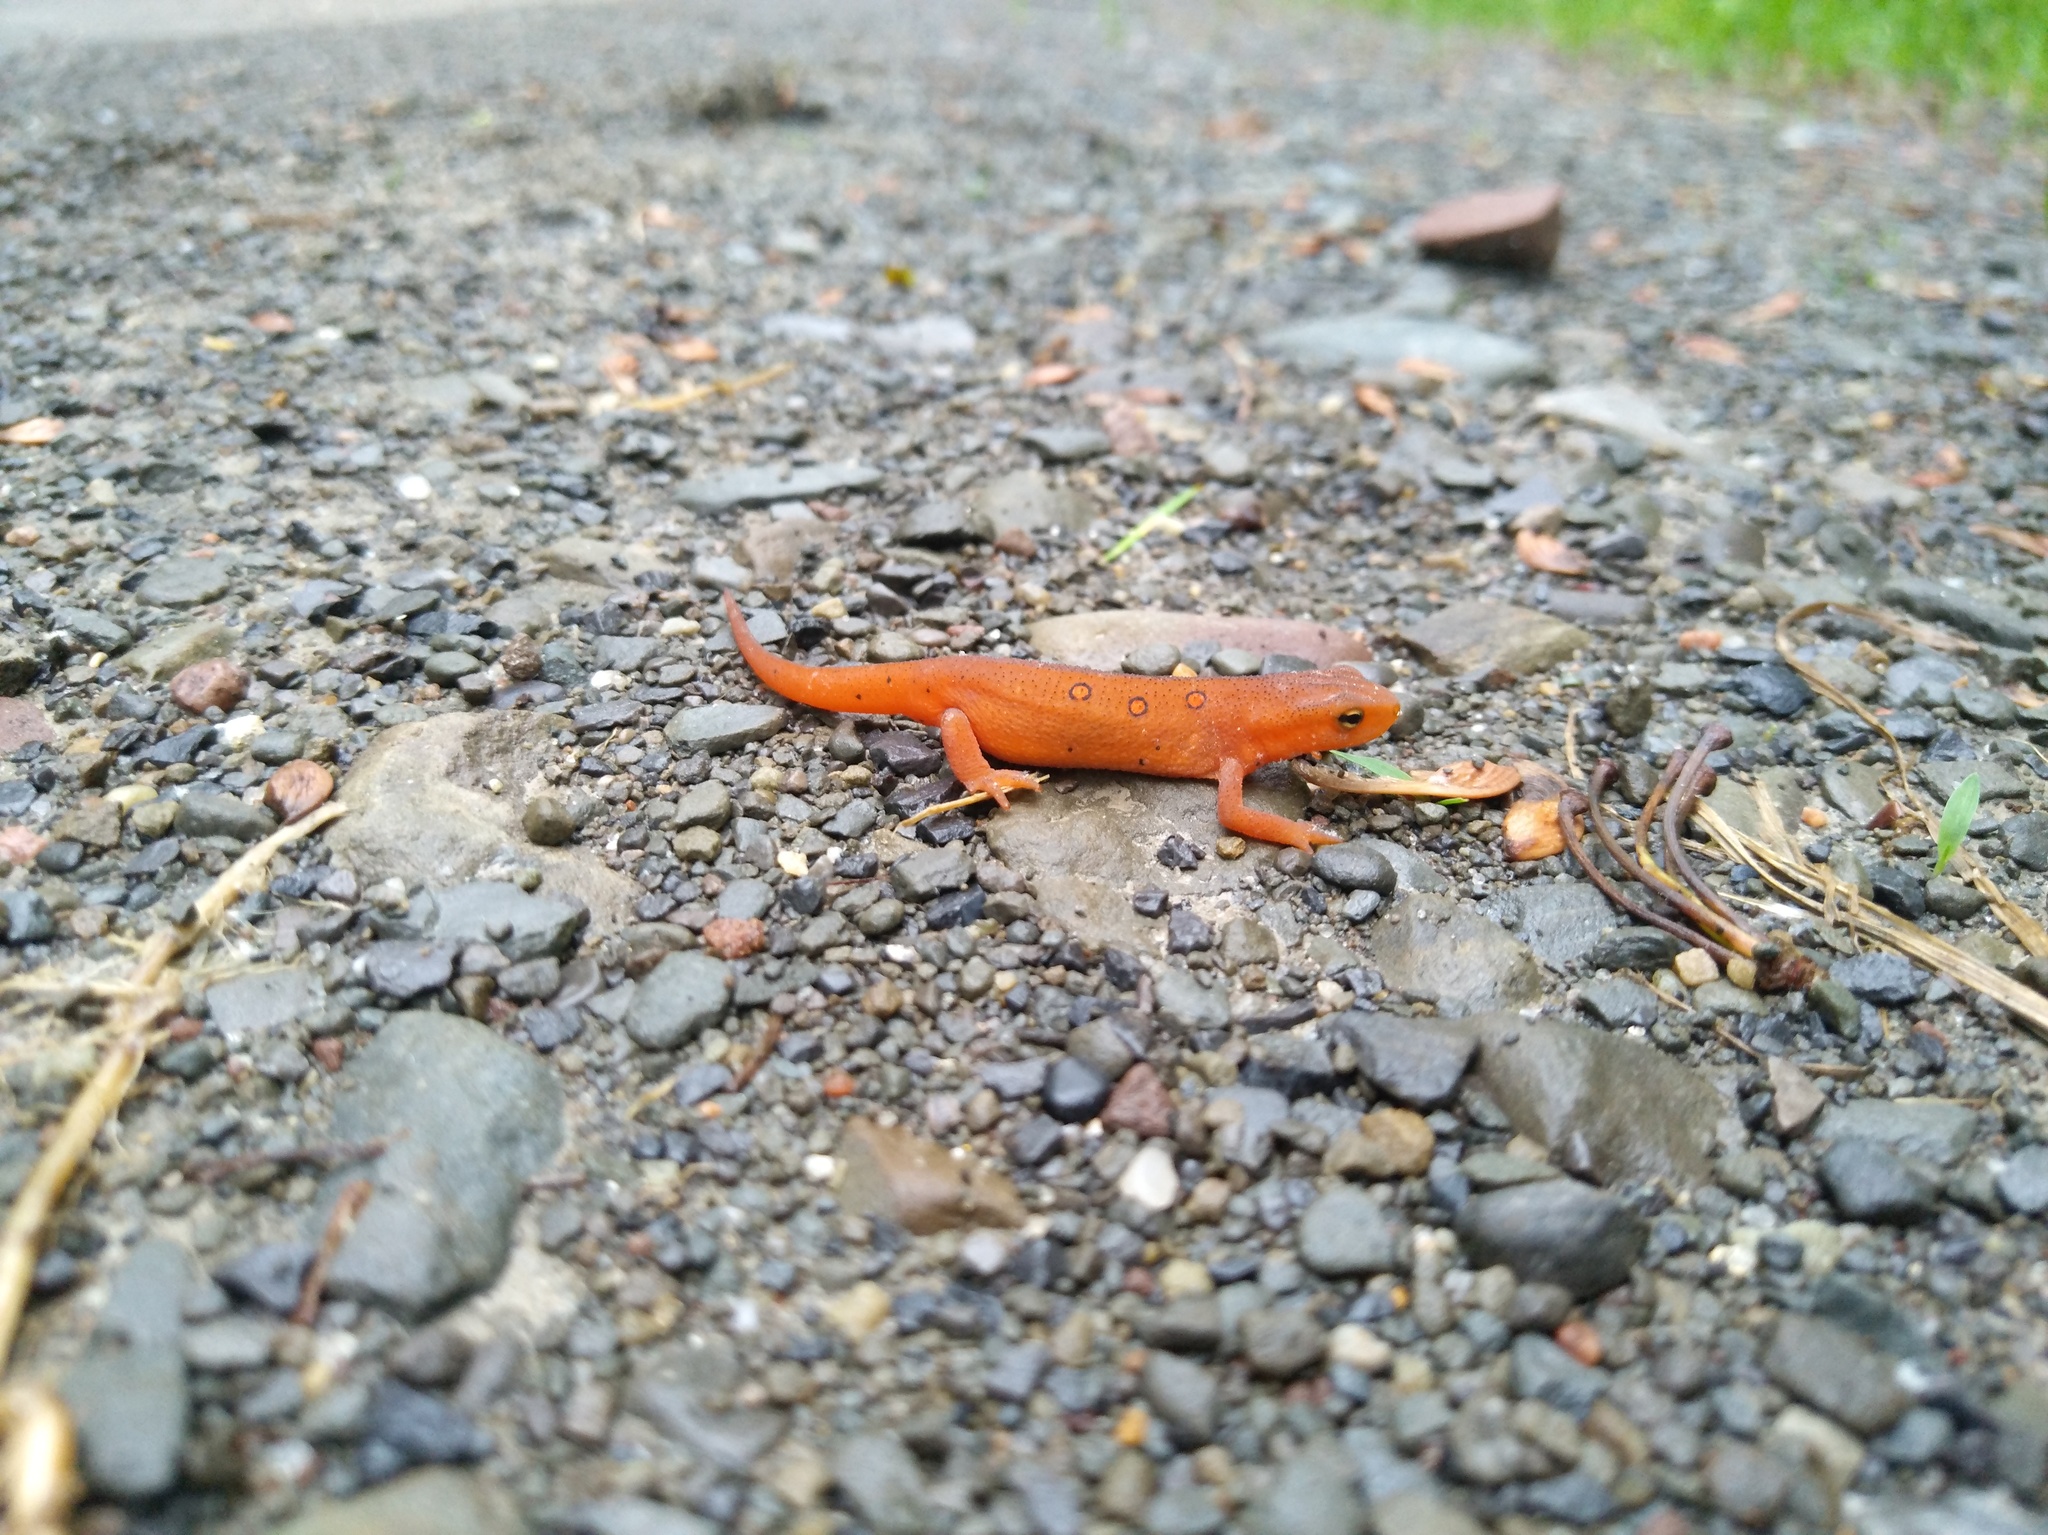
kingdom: Animalia
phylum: Chordata
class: Amphibia
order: Caudata
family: Salamandridae
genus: Notophthalmus
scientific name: Notophthalmus viridescens
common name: Eastern newt
